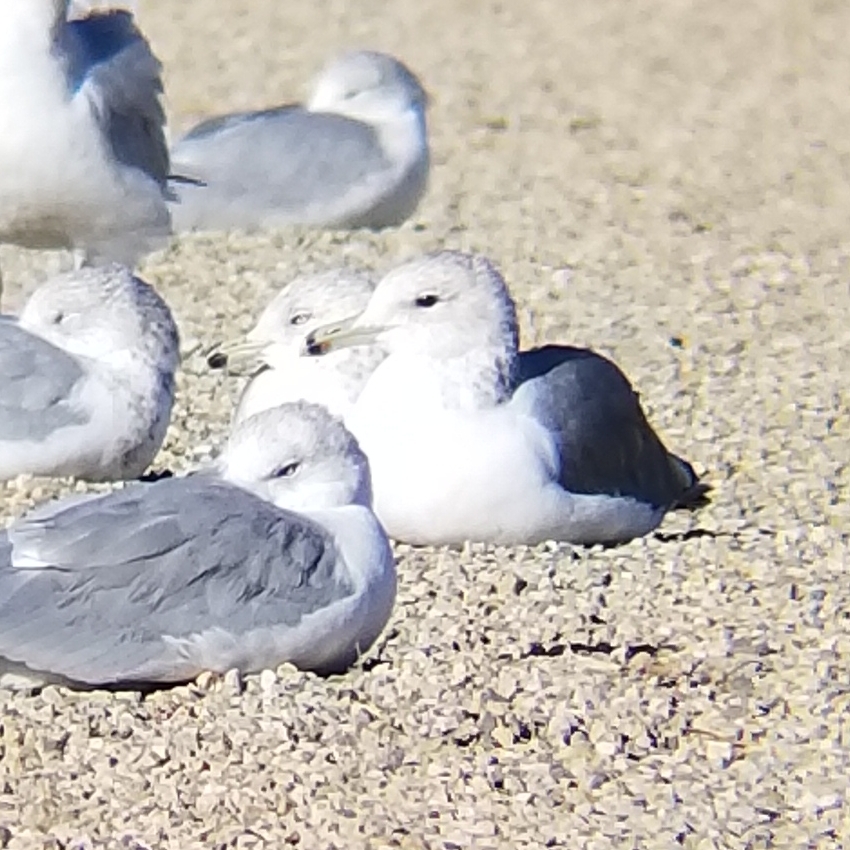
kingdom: Animalia
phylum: Chordata
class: Aves
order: Charadriiformes
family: Laridae
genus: Larus
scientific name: Larus californicus
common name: California gull
